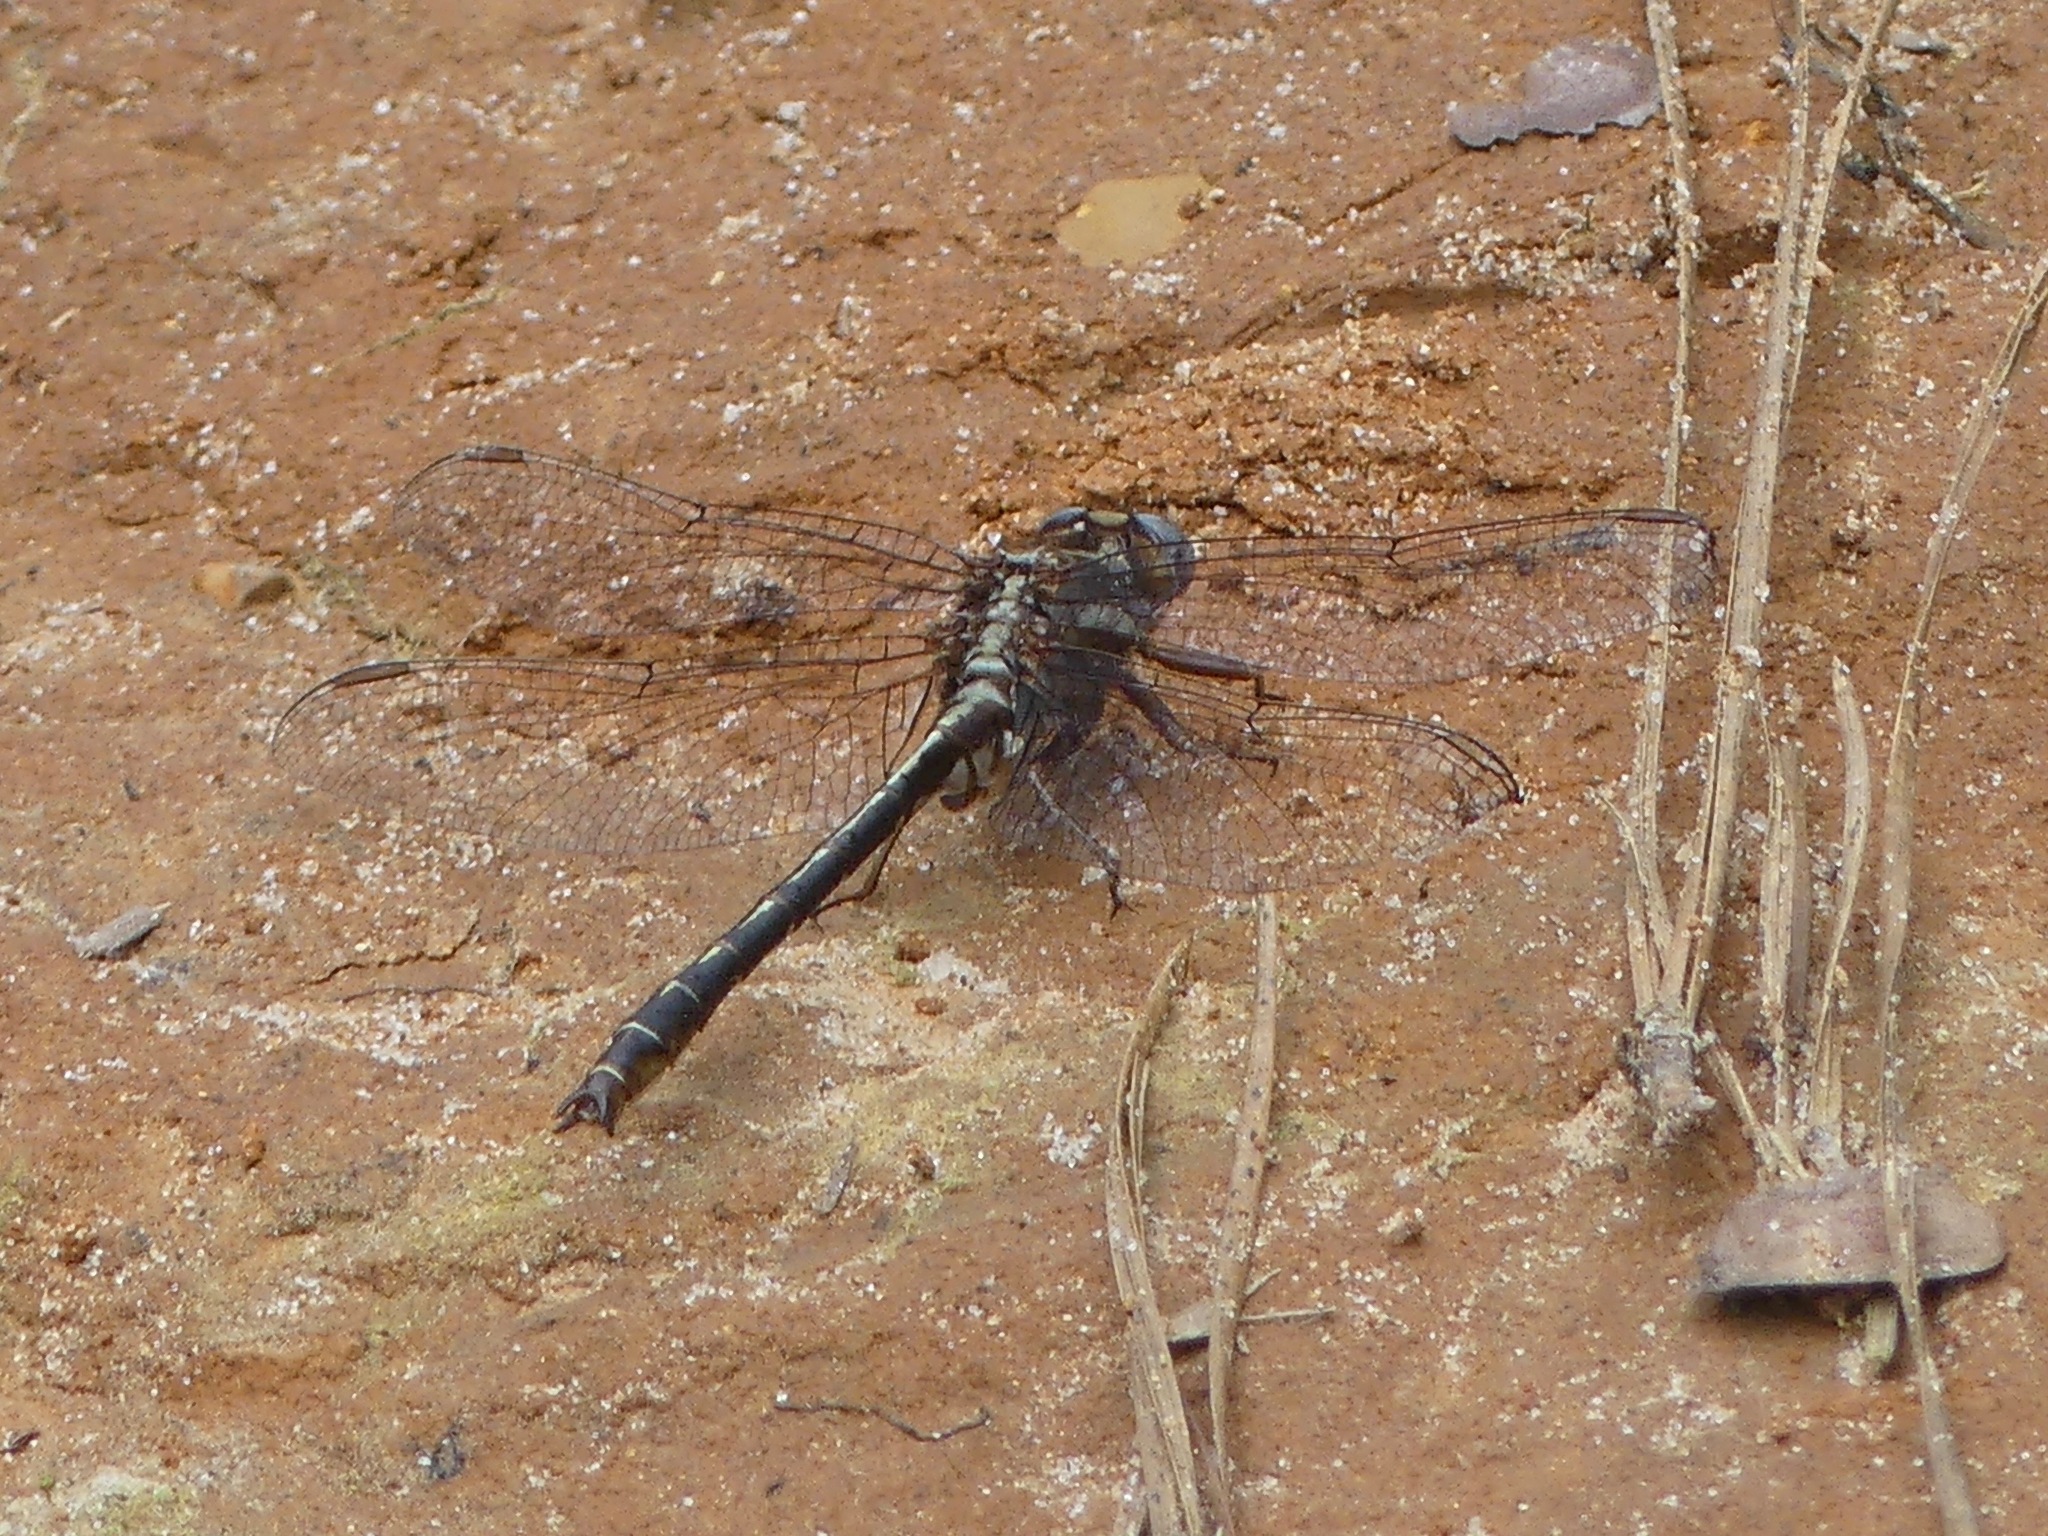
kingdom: Animalia
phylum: Arthropoda
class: Insecta
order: Odonata
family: Gomphidae
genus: Phanogomphus
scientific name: Phanogomphus lividus
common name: Ashy clubtail
